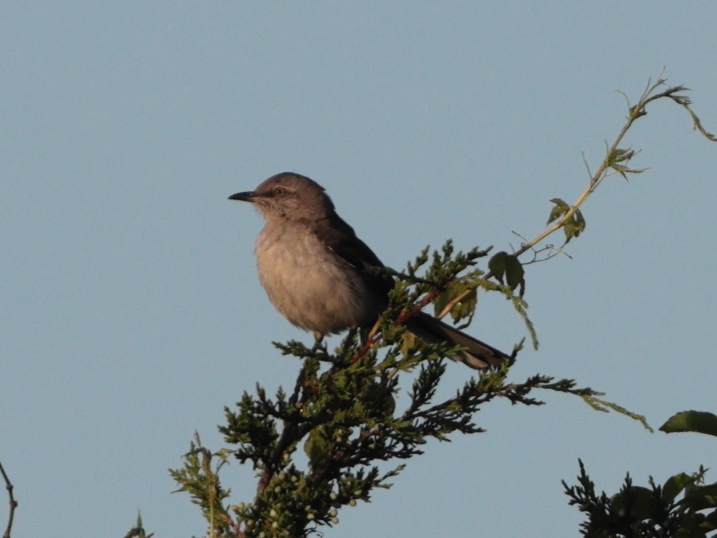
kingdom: Animalia
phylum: Chordata
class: Aves
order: Passeriformes
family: Mimidae
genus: Mimus
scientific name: Mimus polyglottos
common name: Northern mockingbird
